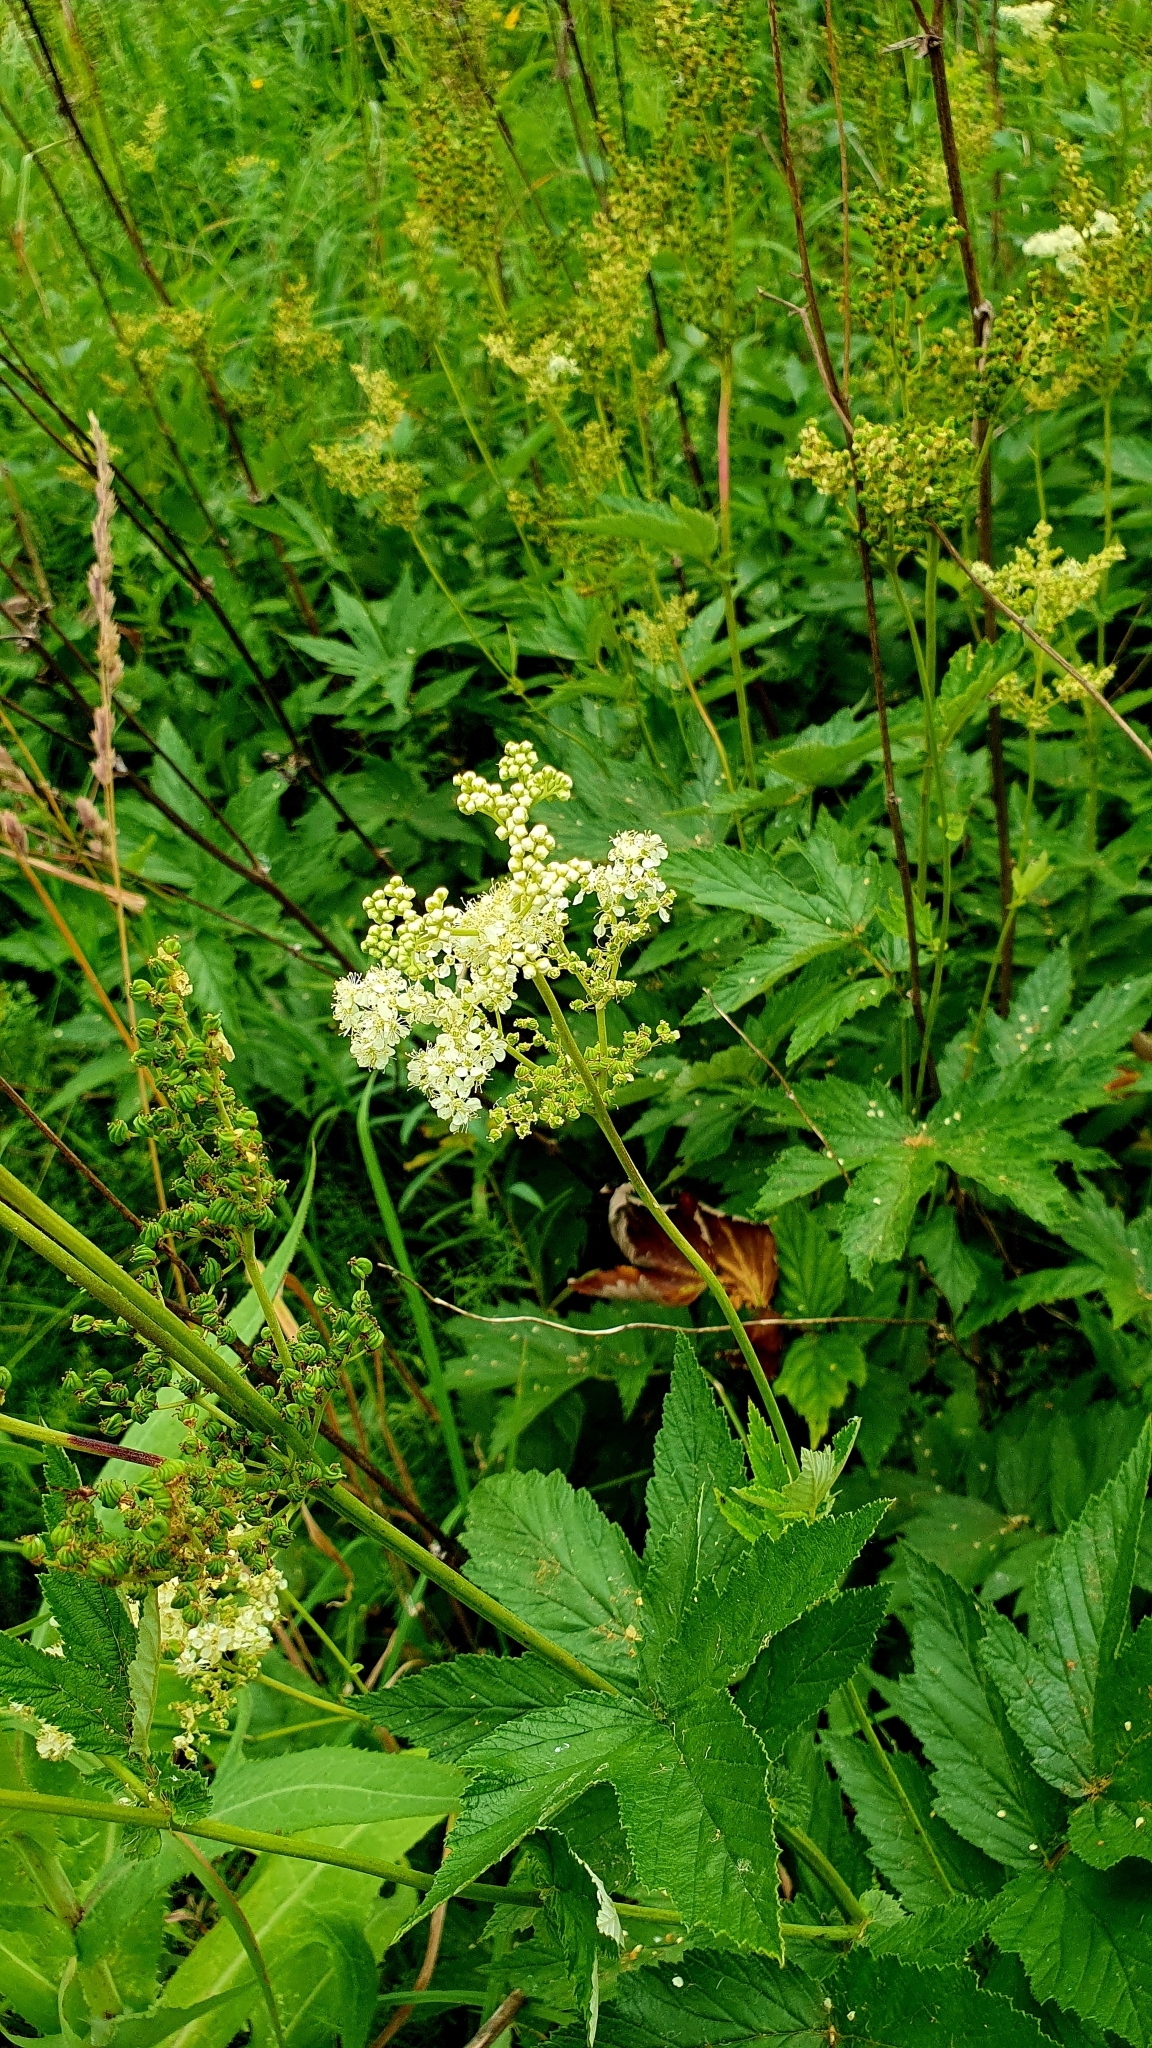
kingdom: Plantae
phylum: Tracheophyta
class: Magnoliopsida
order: Rosales
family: Rosaceae
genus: Filipendula
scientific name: Filipendula ulmaria
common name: Meadowsweet
